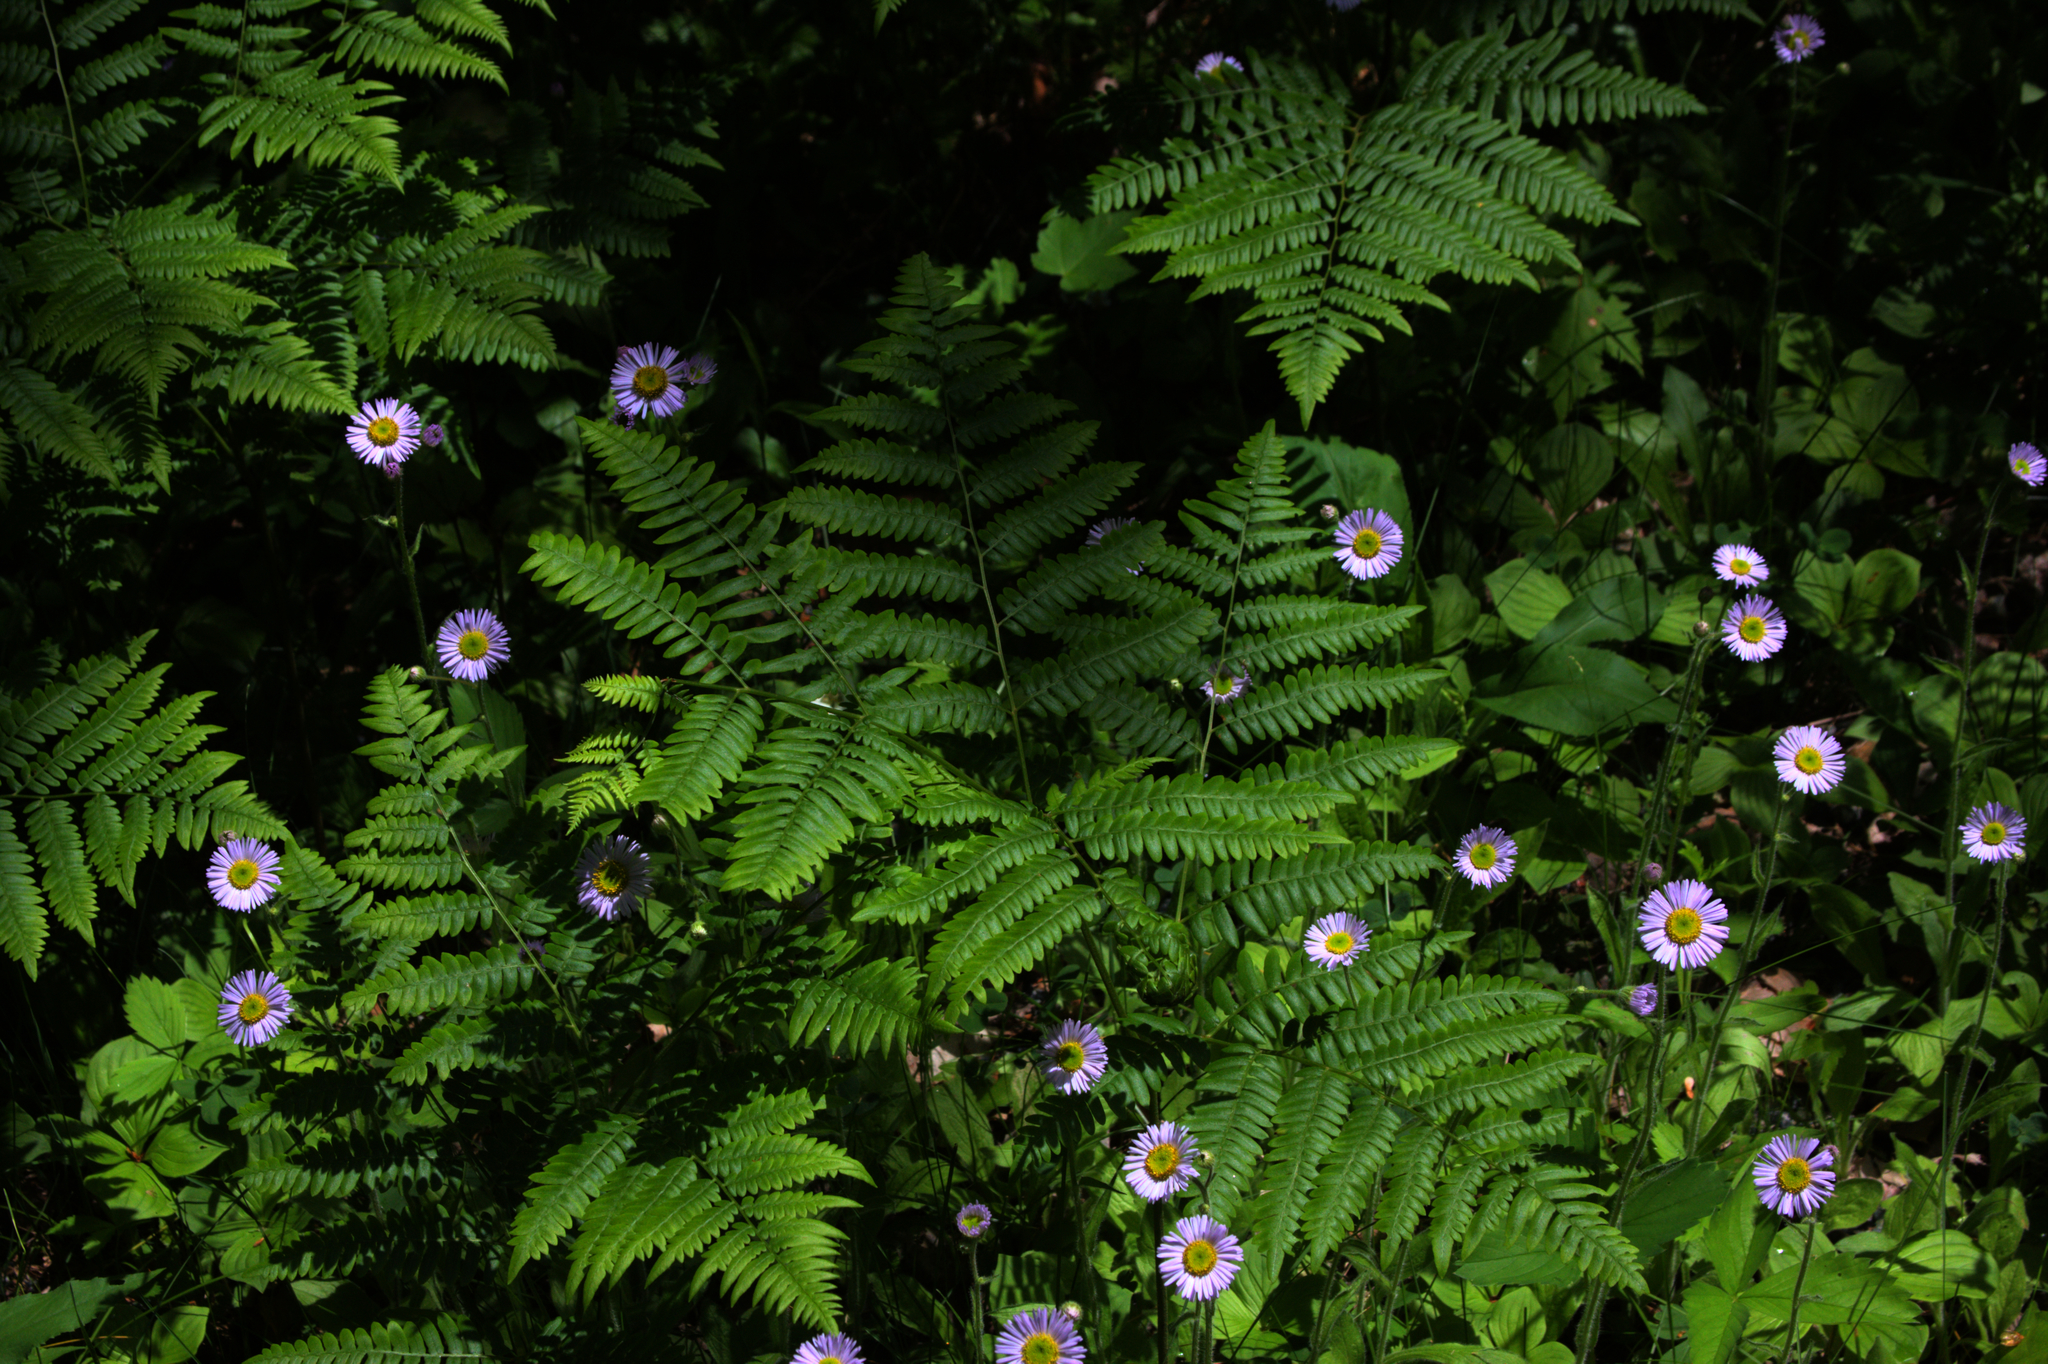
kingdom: Plantae
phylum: Tracheophyta
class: Magnoliopsida
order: Asterales
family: Asteraceae
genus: Erigeron
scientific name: Erigeron pulchellus
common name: Hairy fleabane
